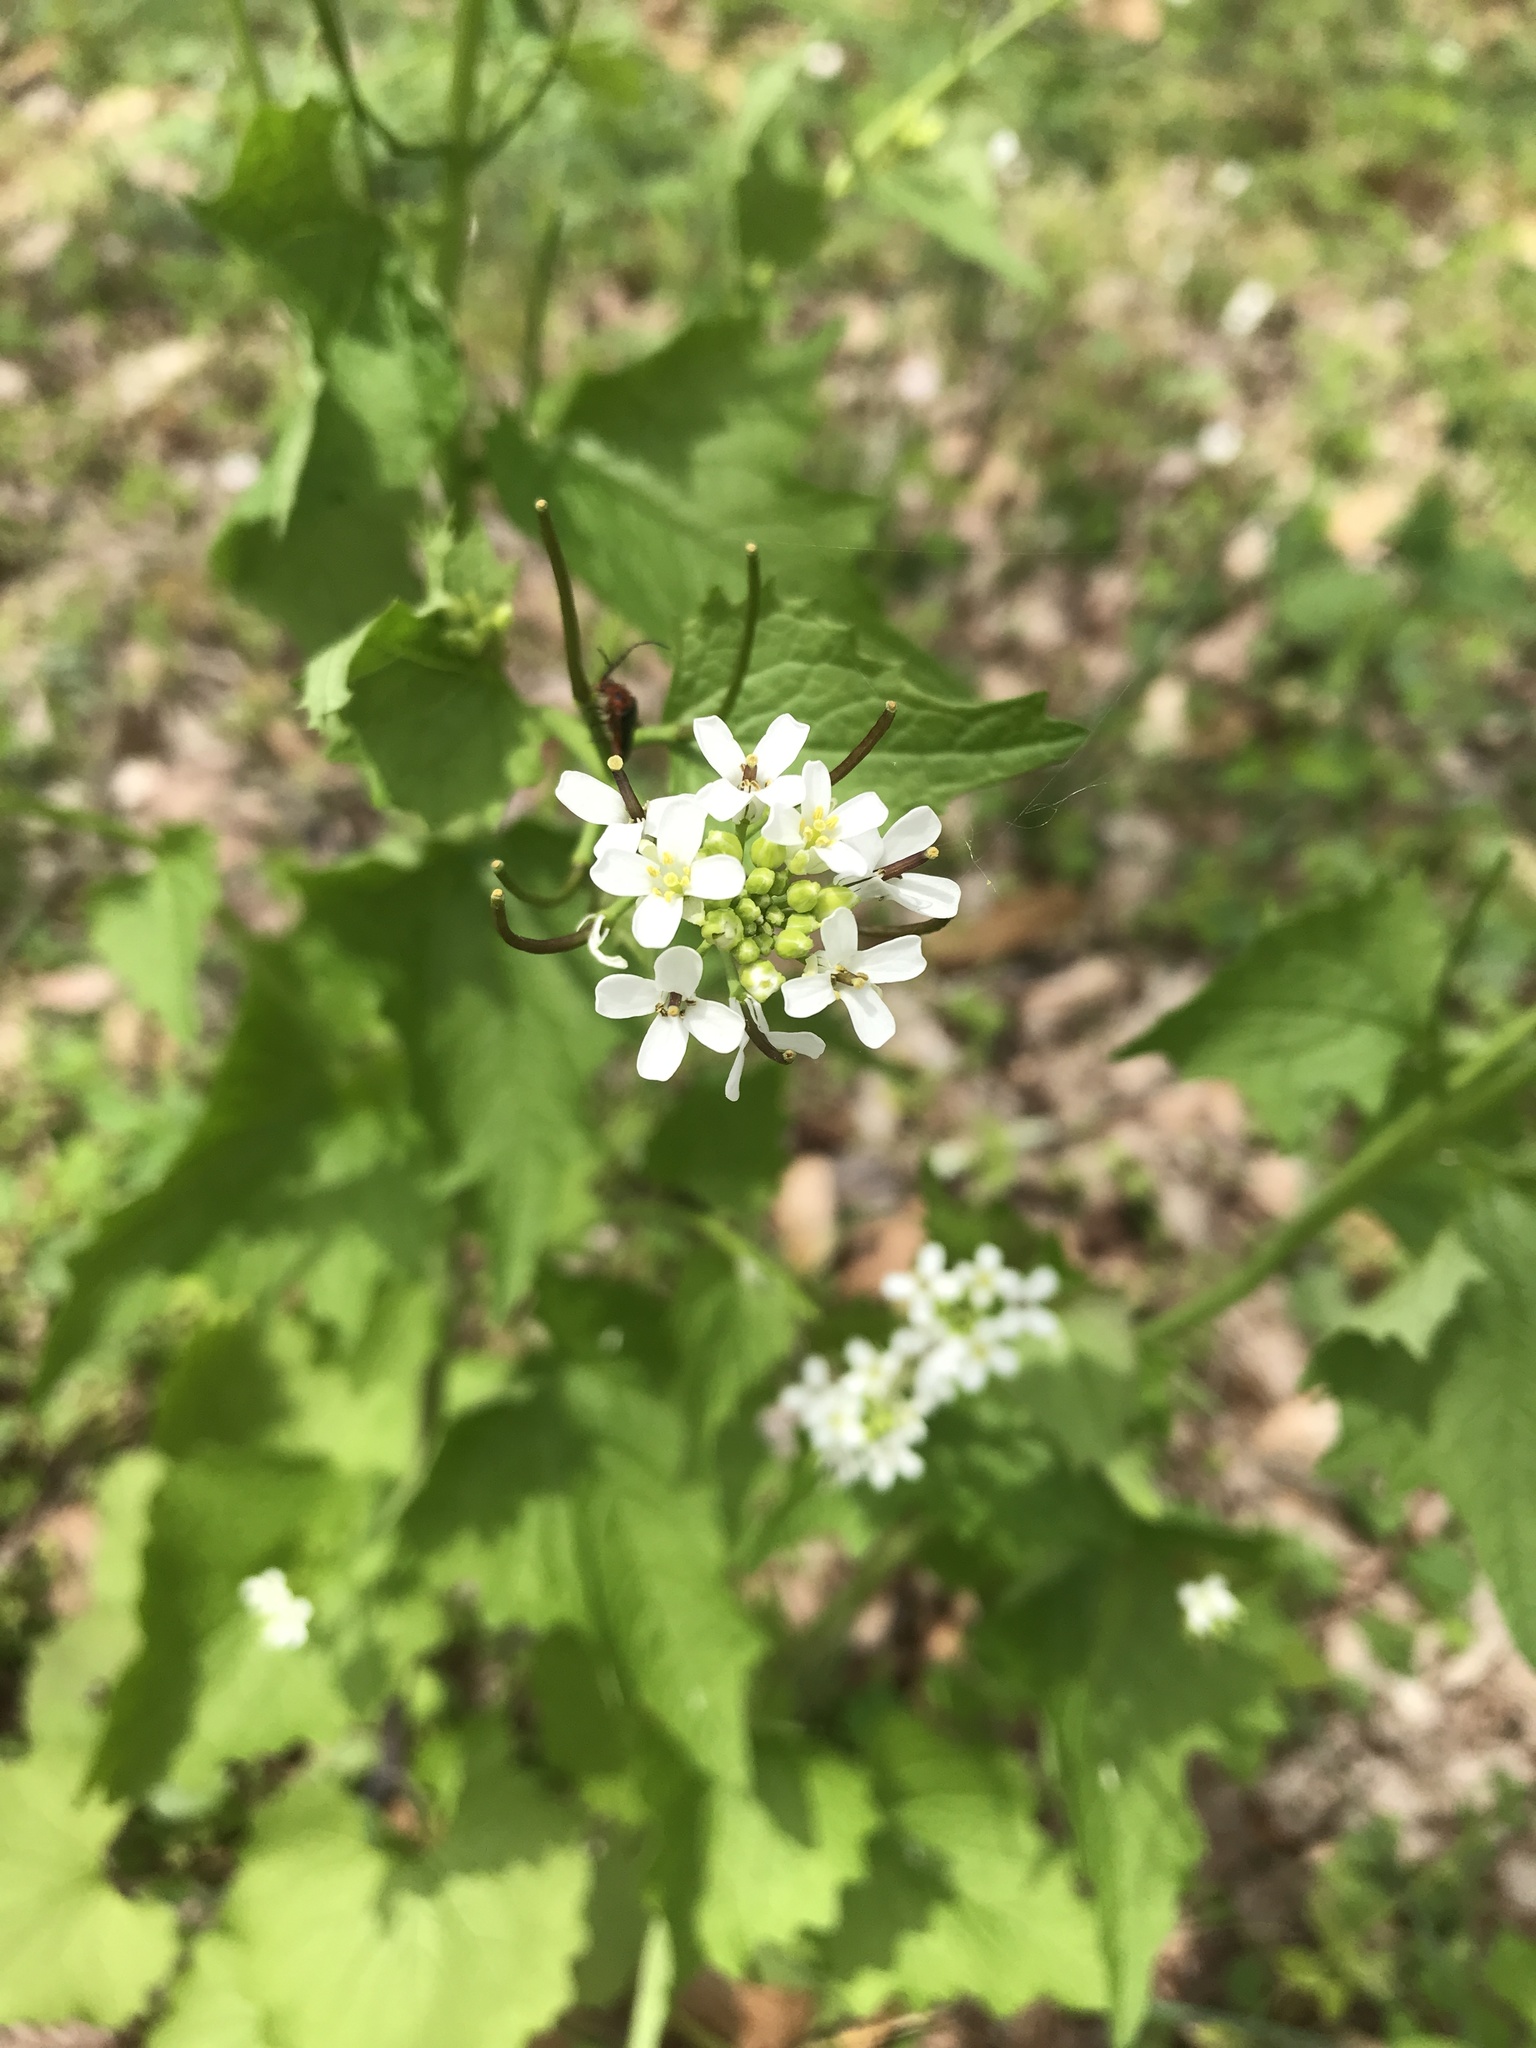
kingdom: Plantae
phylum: Tracheophyta
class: Magnoliopsida
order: Brassicales
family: Brassicaceae
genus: Alliaria
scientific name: Alliaria petiolata
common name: Garlic mustard
